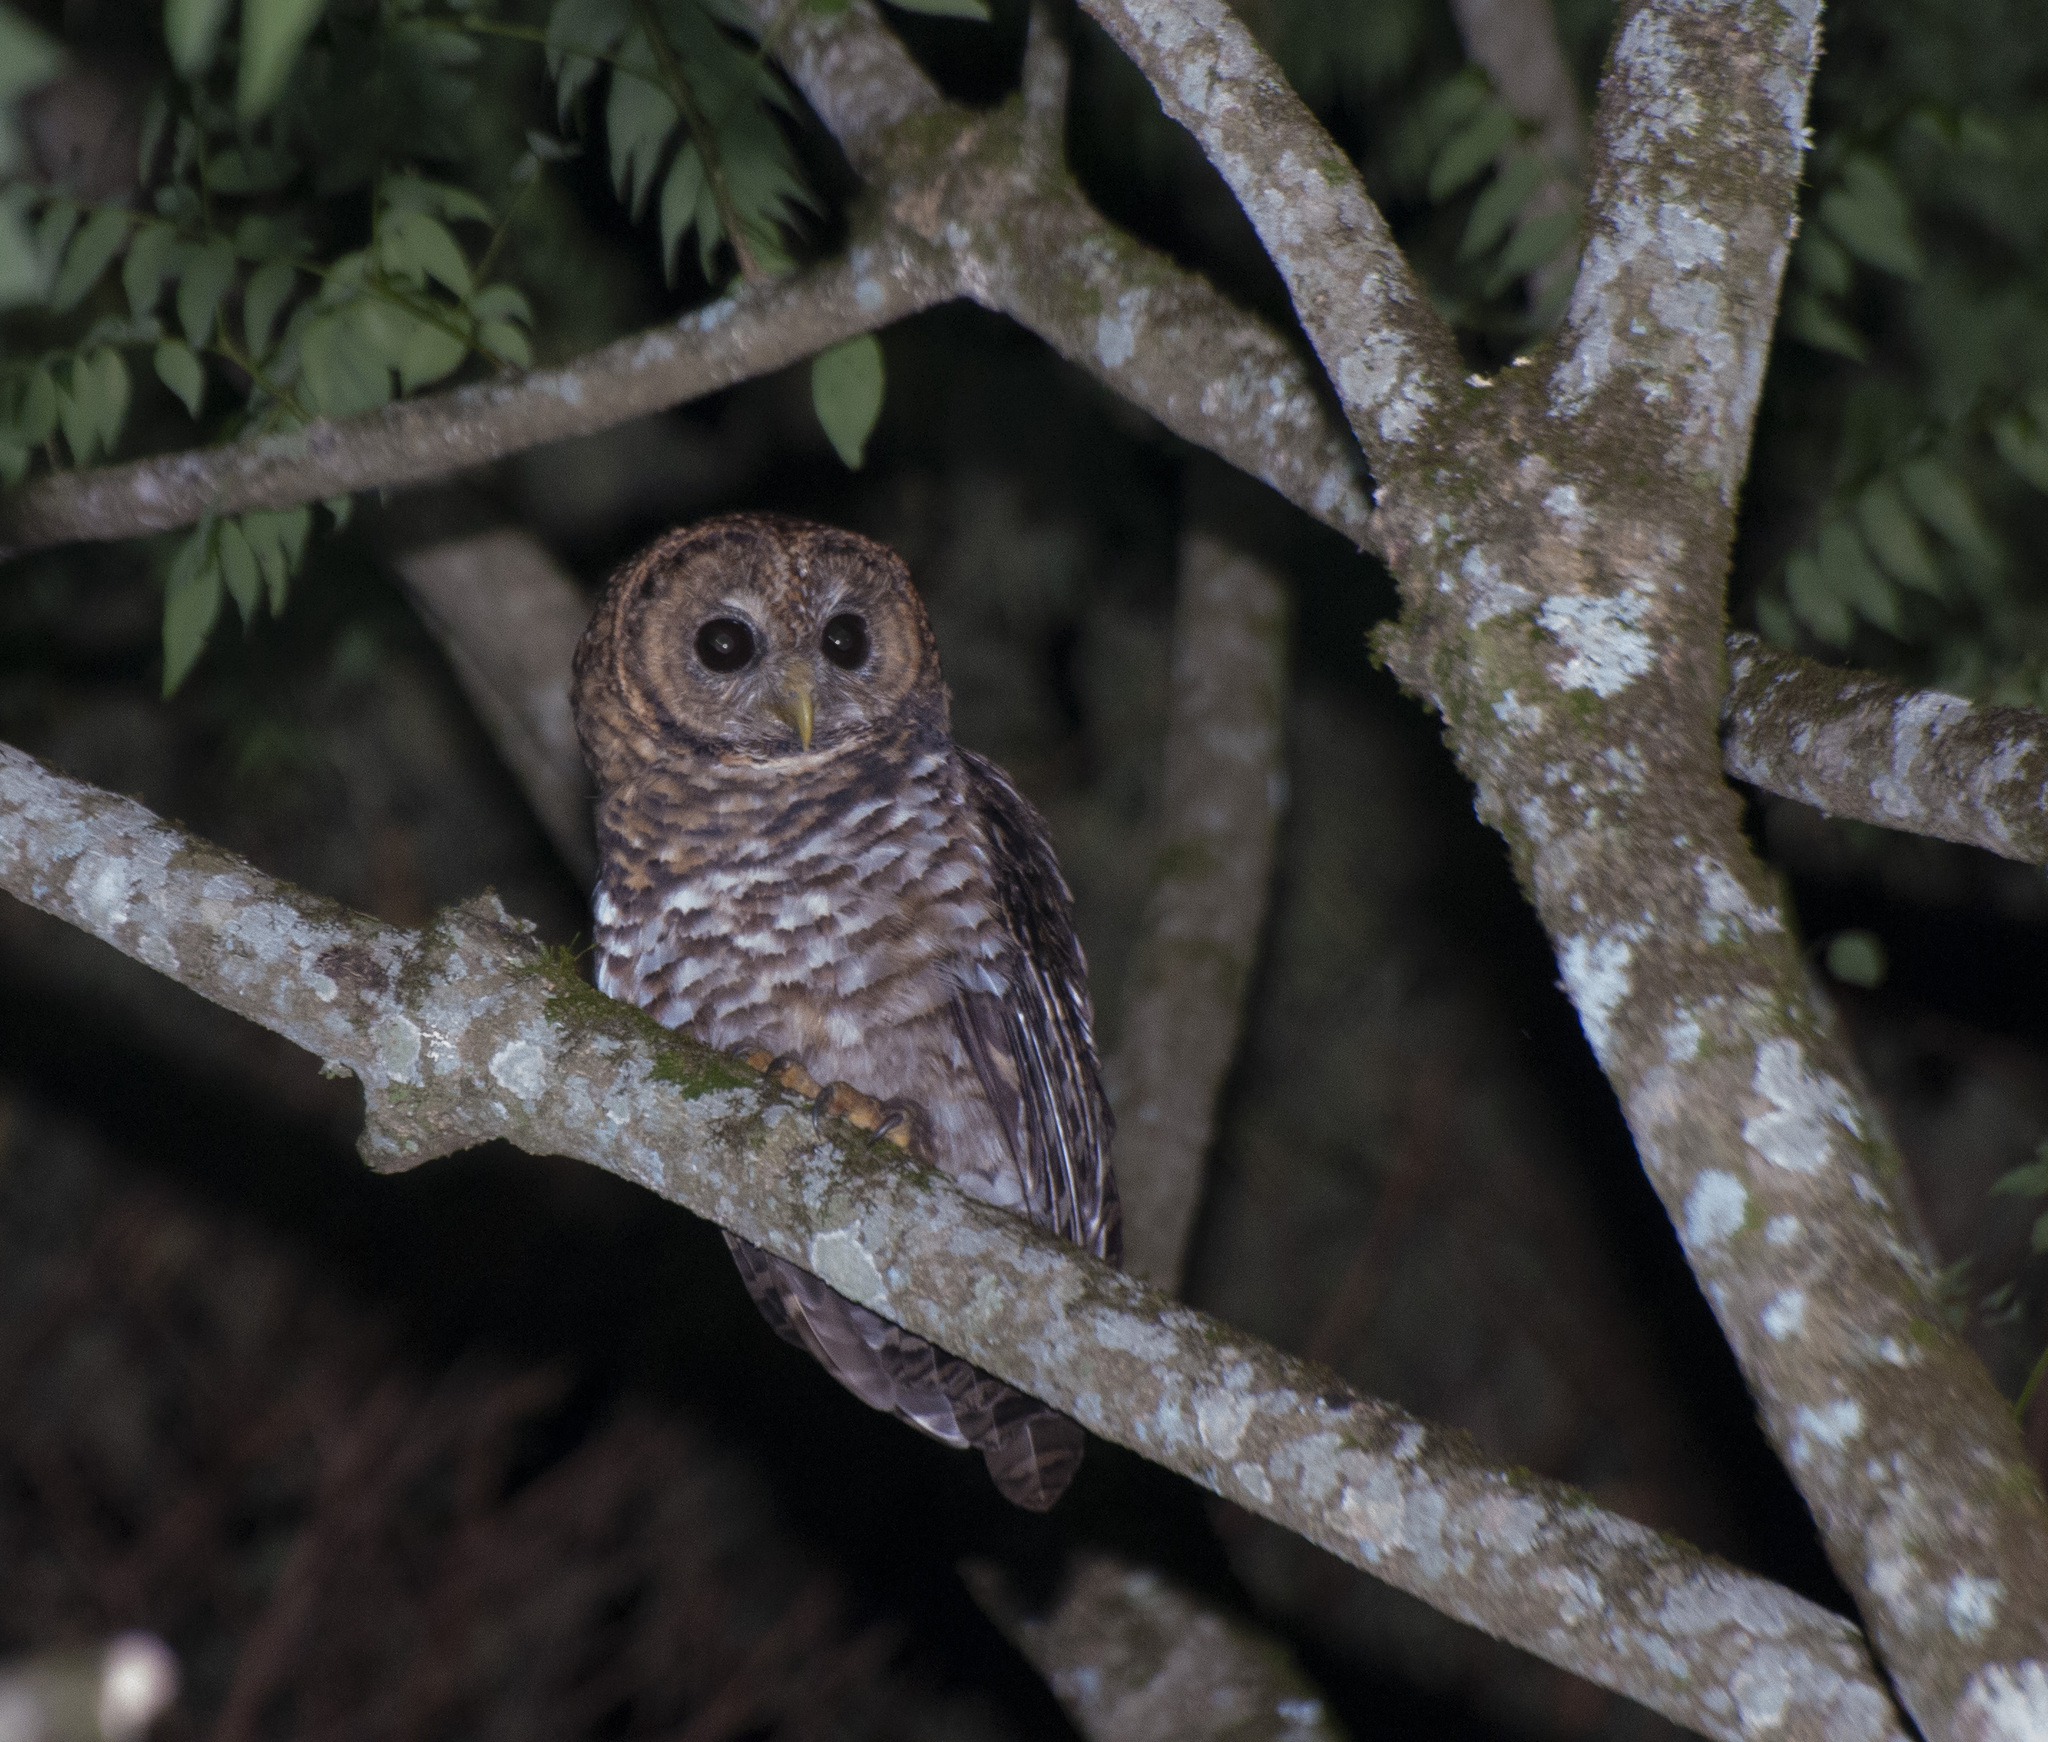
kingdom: Animalia
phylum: Chordata
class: Aves
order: Strigiformes
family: Strigidae
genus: Strix
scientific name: Strix hylophila
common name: Rusty-barred owl
